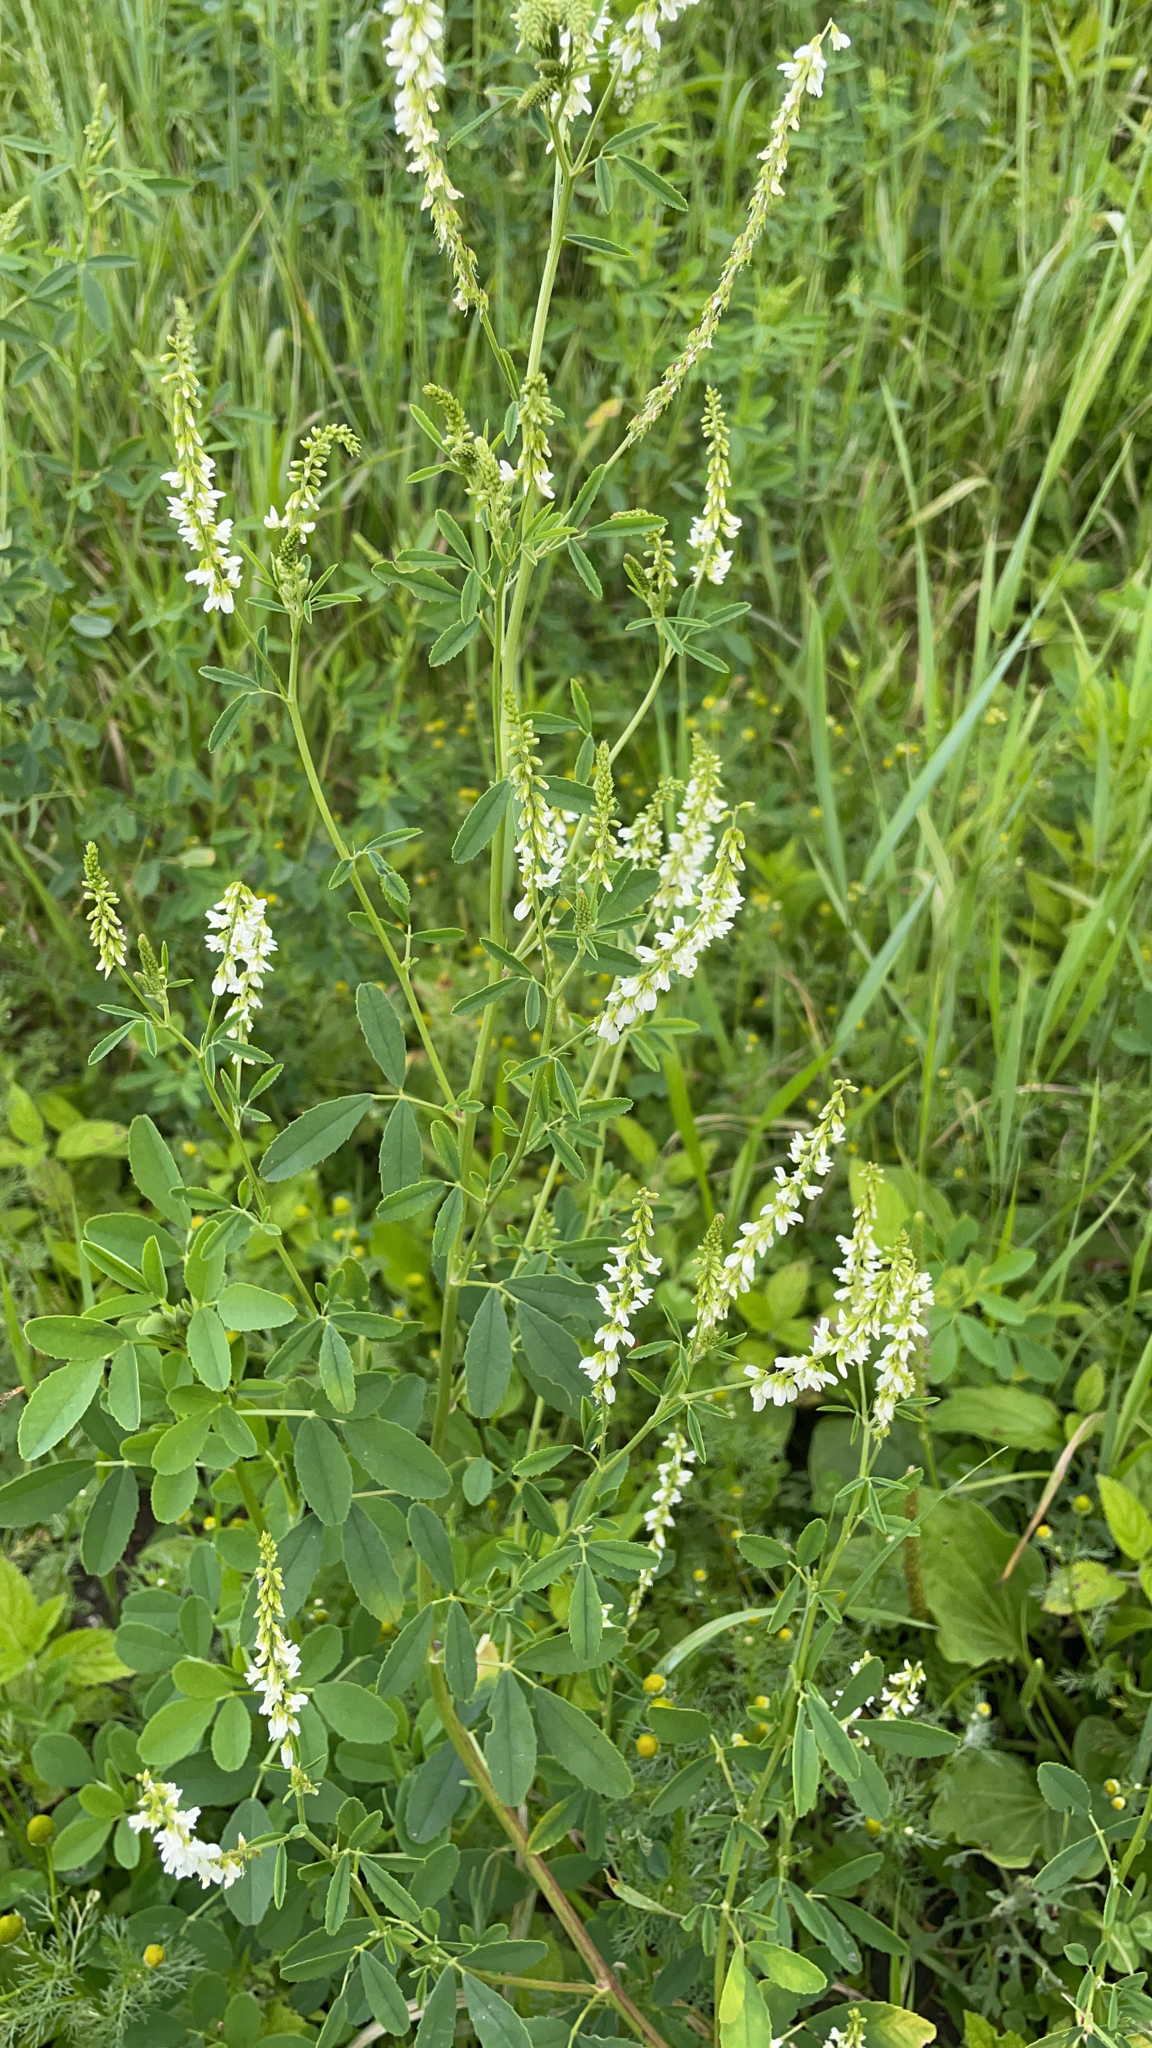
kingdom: Plantae
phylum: Tracheophyta
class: Magnoliopsida
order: Fabales
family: Fabaceae
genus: Melilotus
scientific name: Melilotus albus
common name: White melilot
